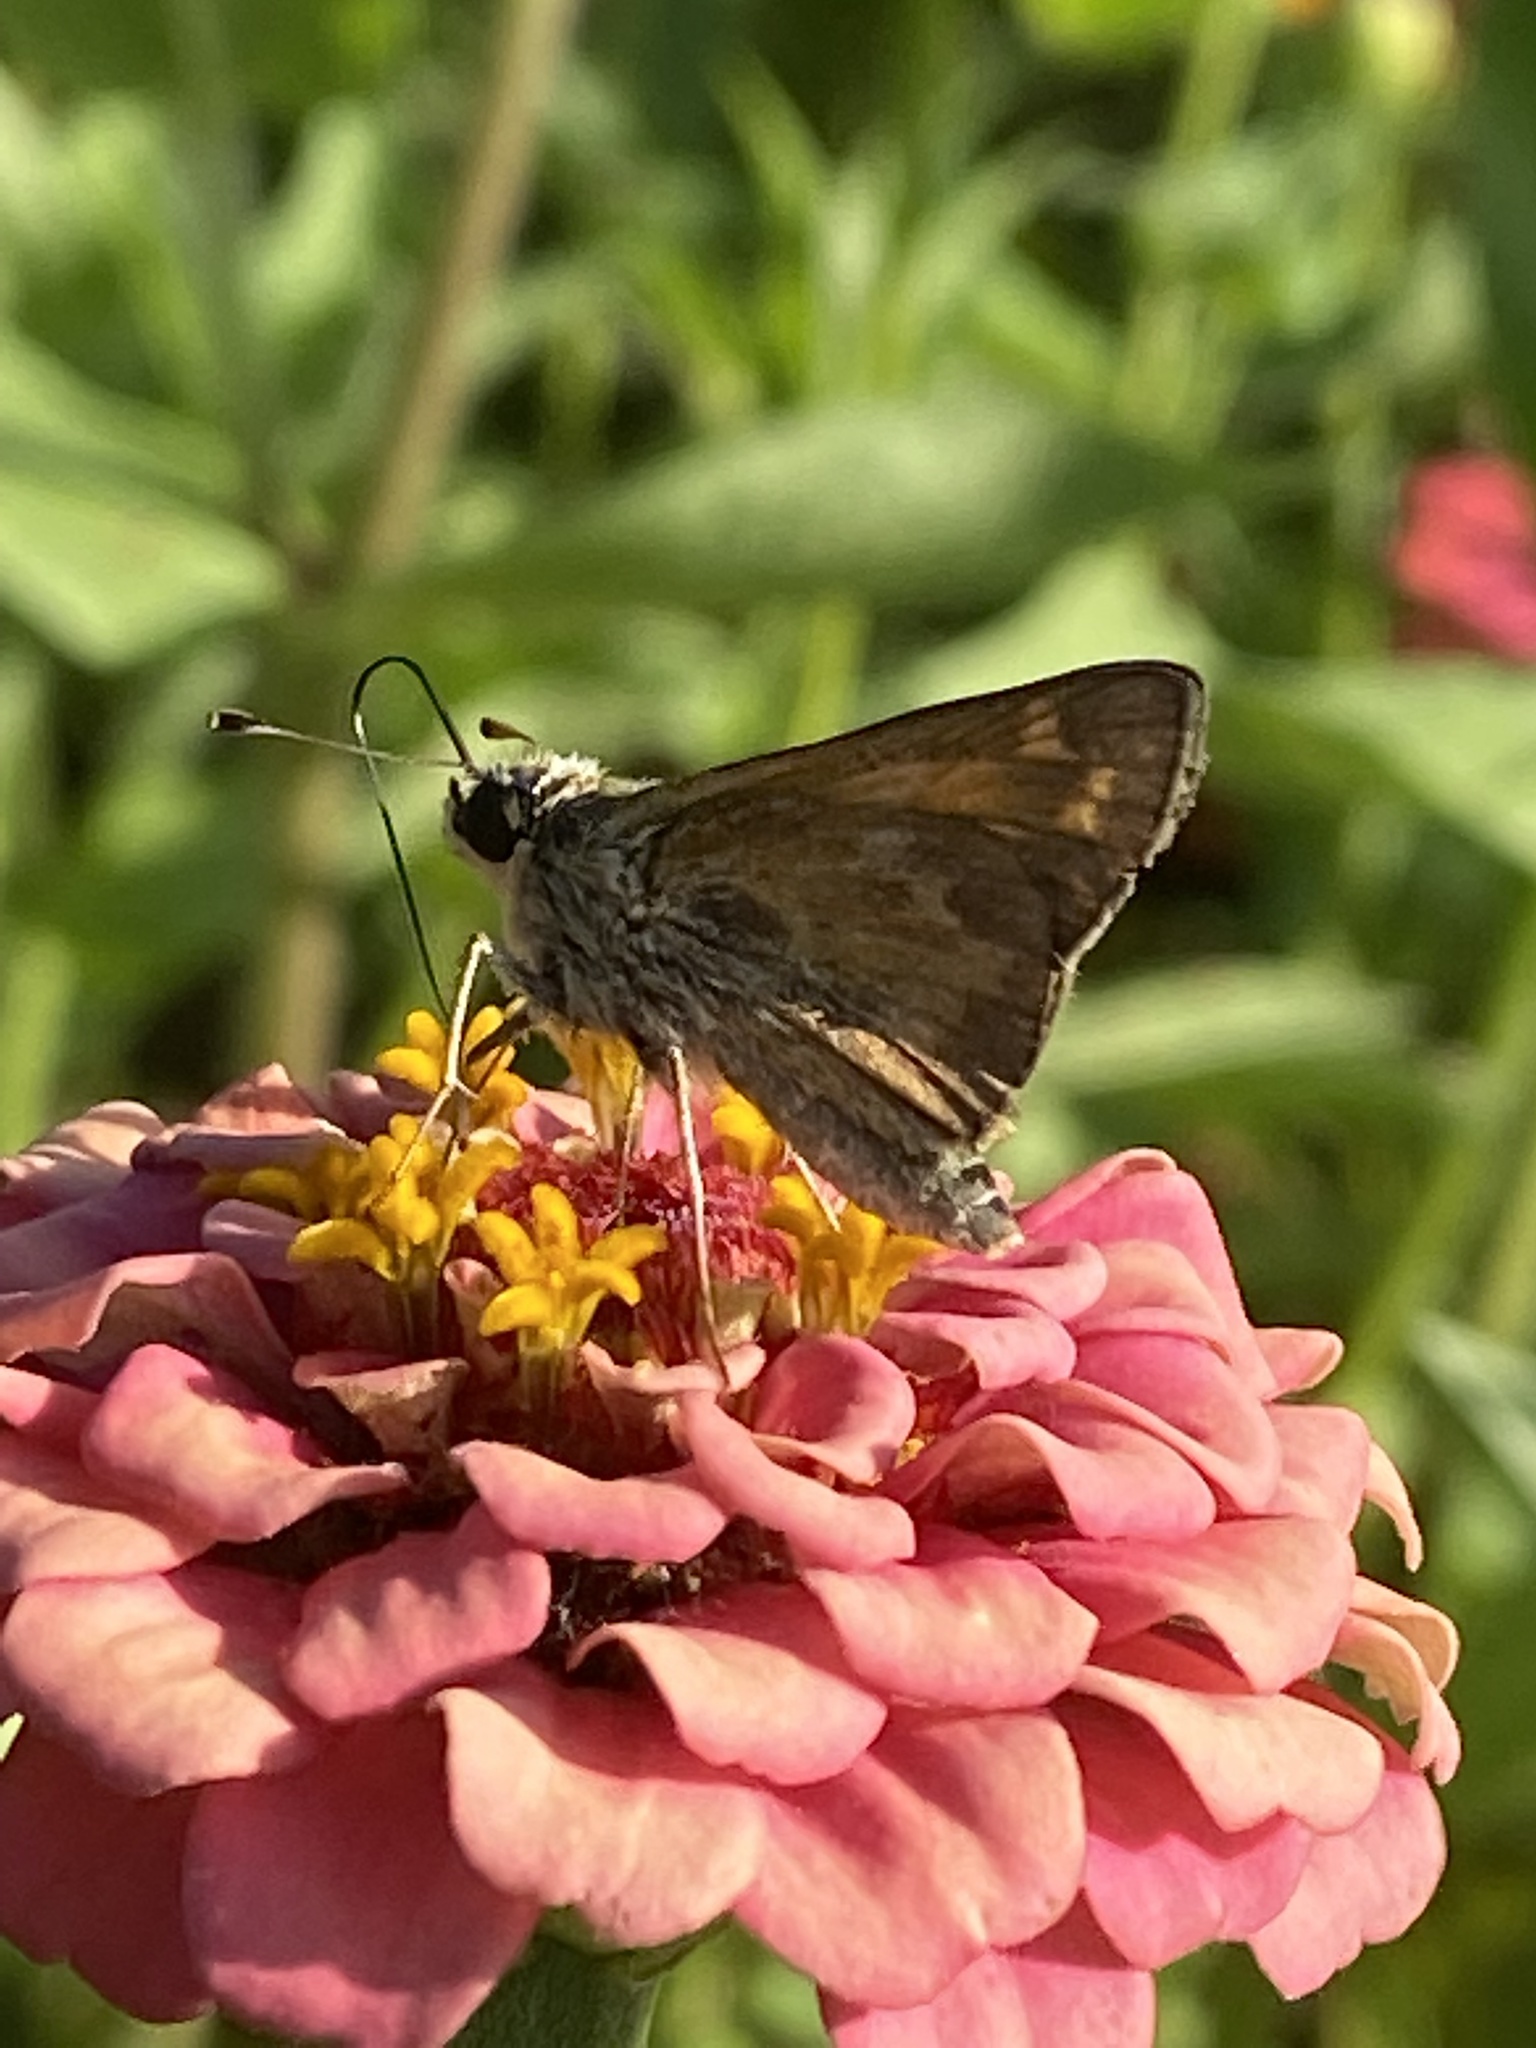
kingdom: Animalia
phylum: Arthropoda
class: Insecta
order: Lepidoptera
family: Hesperiidae
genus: Atalopedes
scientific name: Atalopedes
